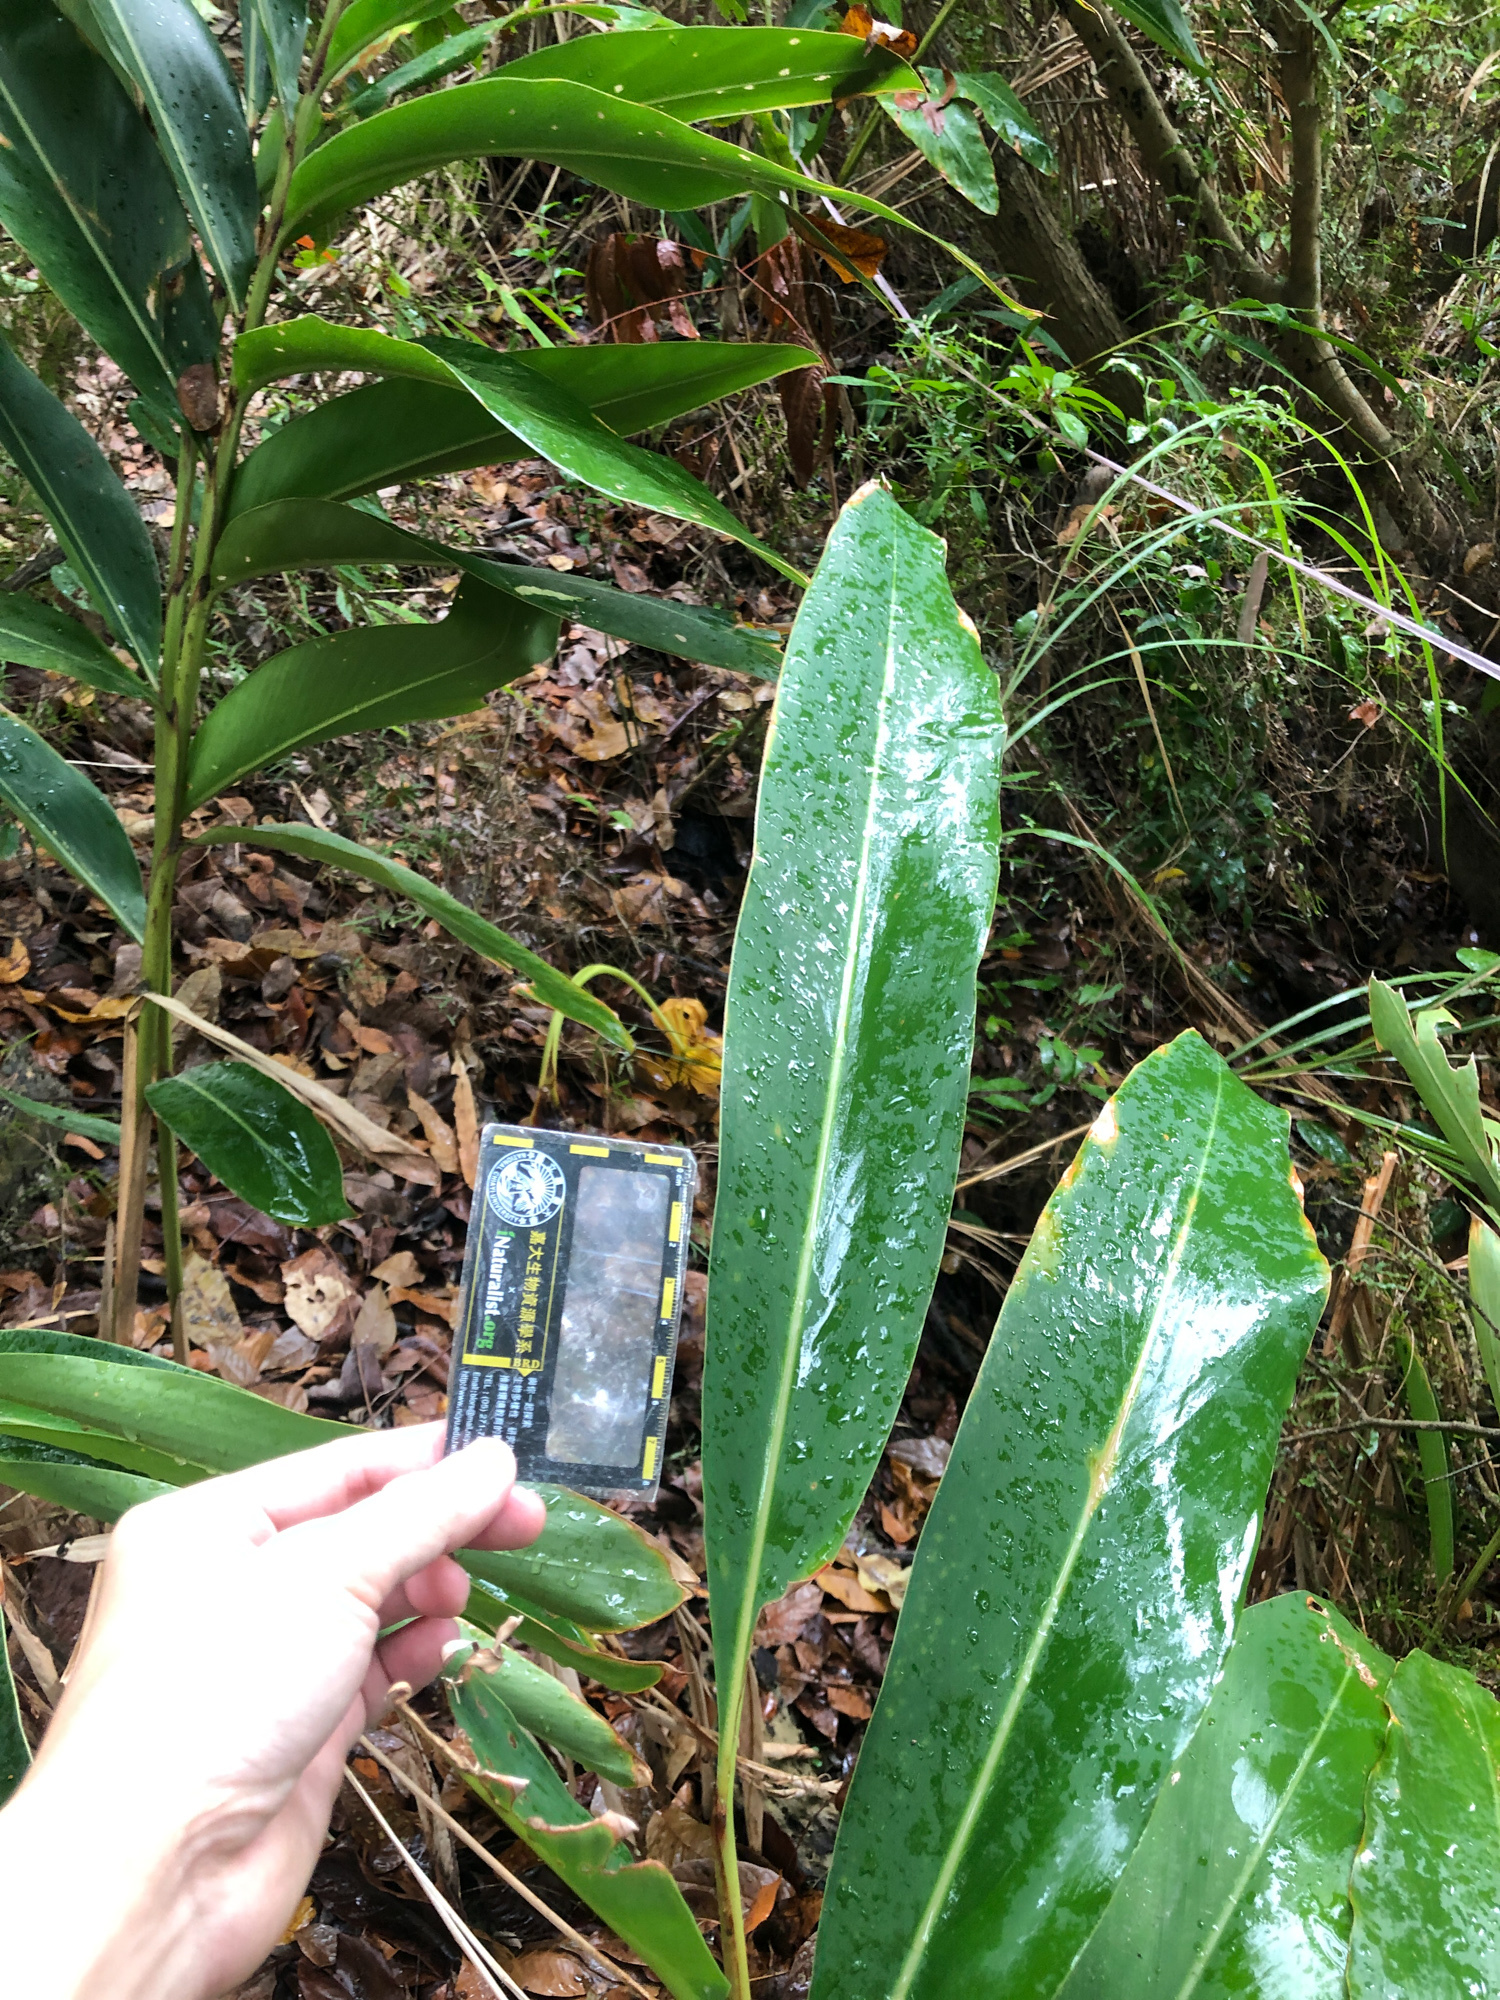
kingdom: Plantae
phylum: Tracheophyta
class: Liliopsida
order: Zingiberales
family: Zingiberaceae
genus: Alpinia
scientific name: Alpinia zerumbet
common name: Shellplant
